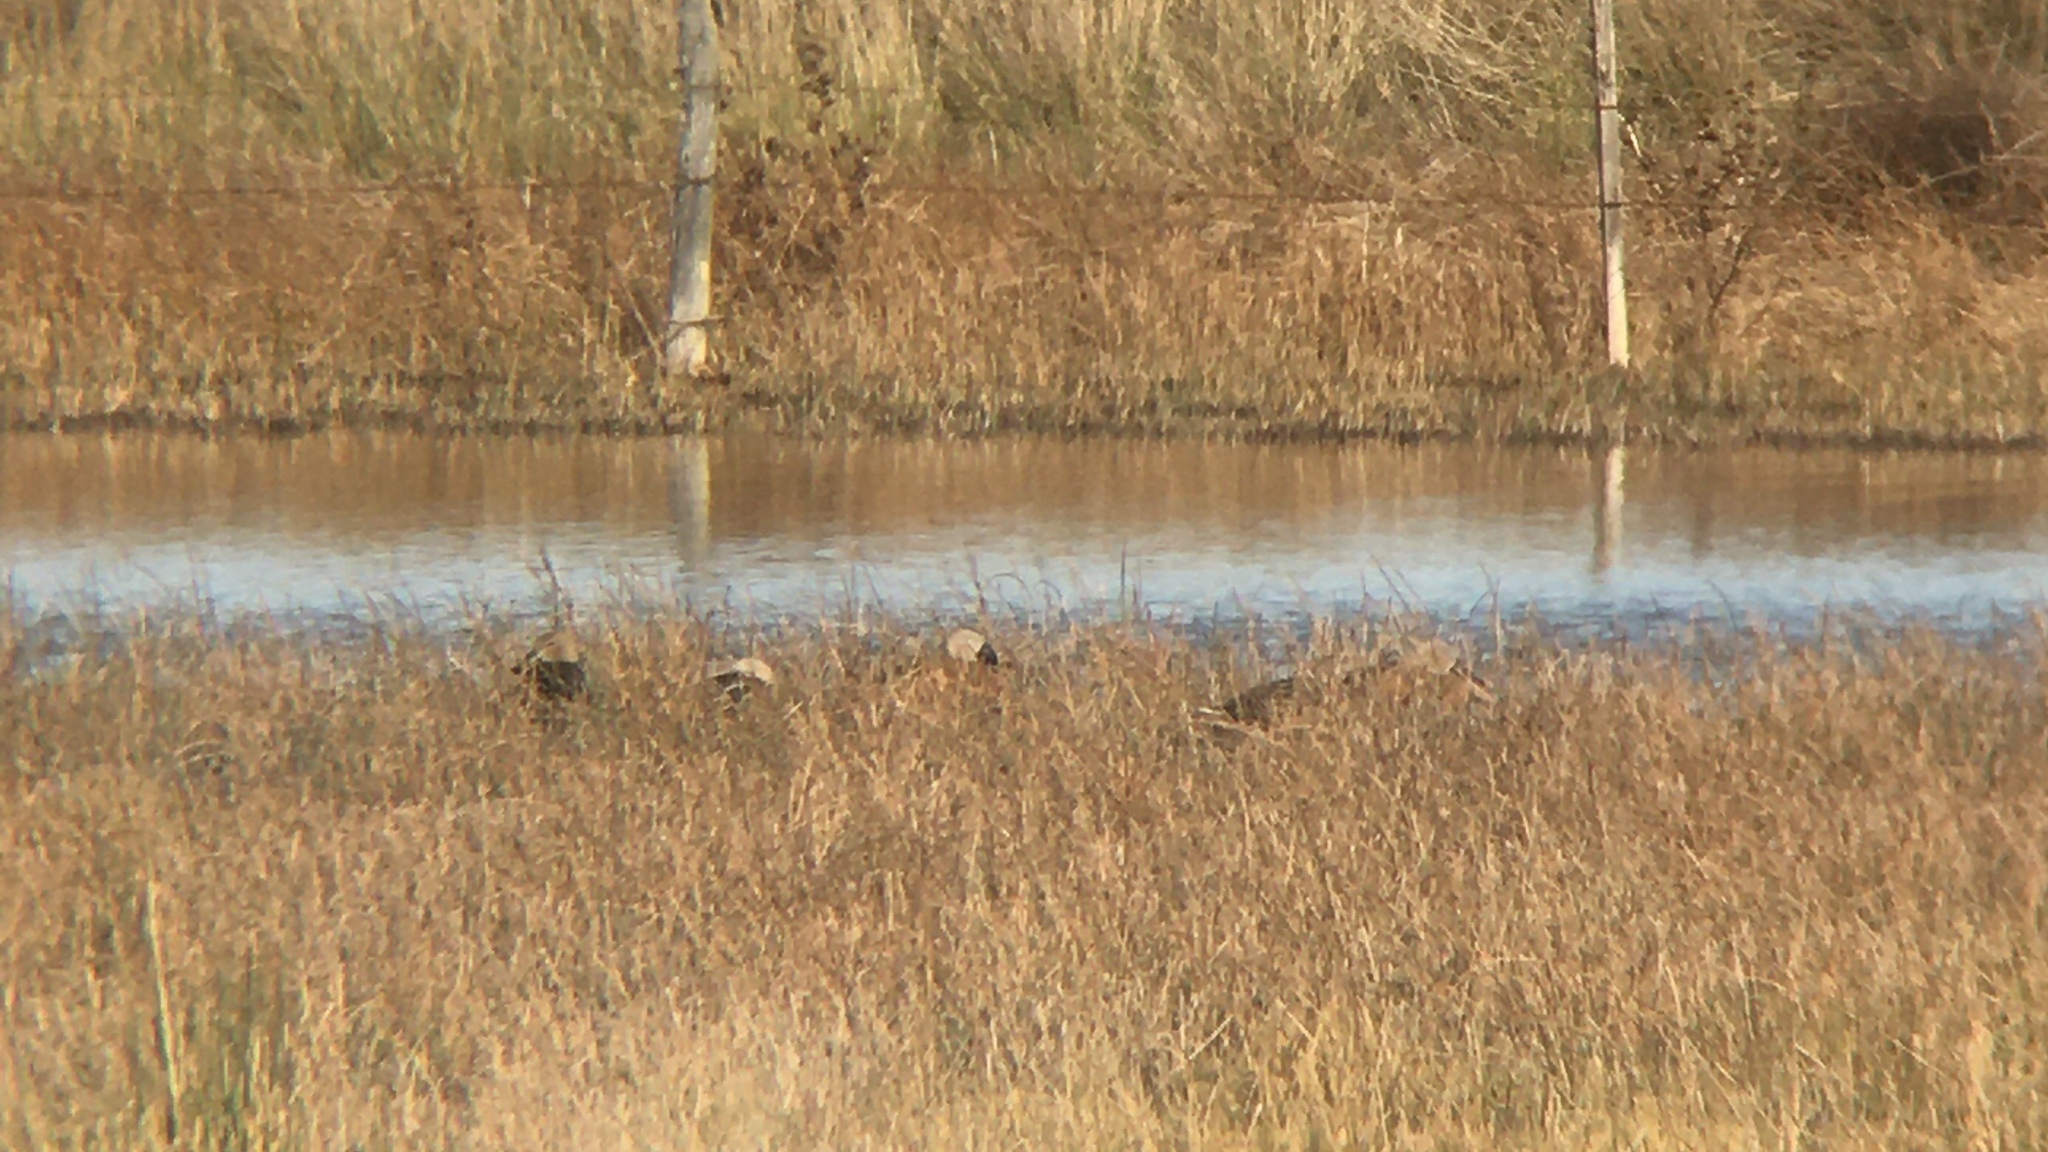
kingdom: Animalia
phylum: Chordata
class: Aves
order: Anseriformes
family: Anatidae
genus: Spatula
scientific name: Spatula platalea
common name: Red shoveler
